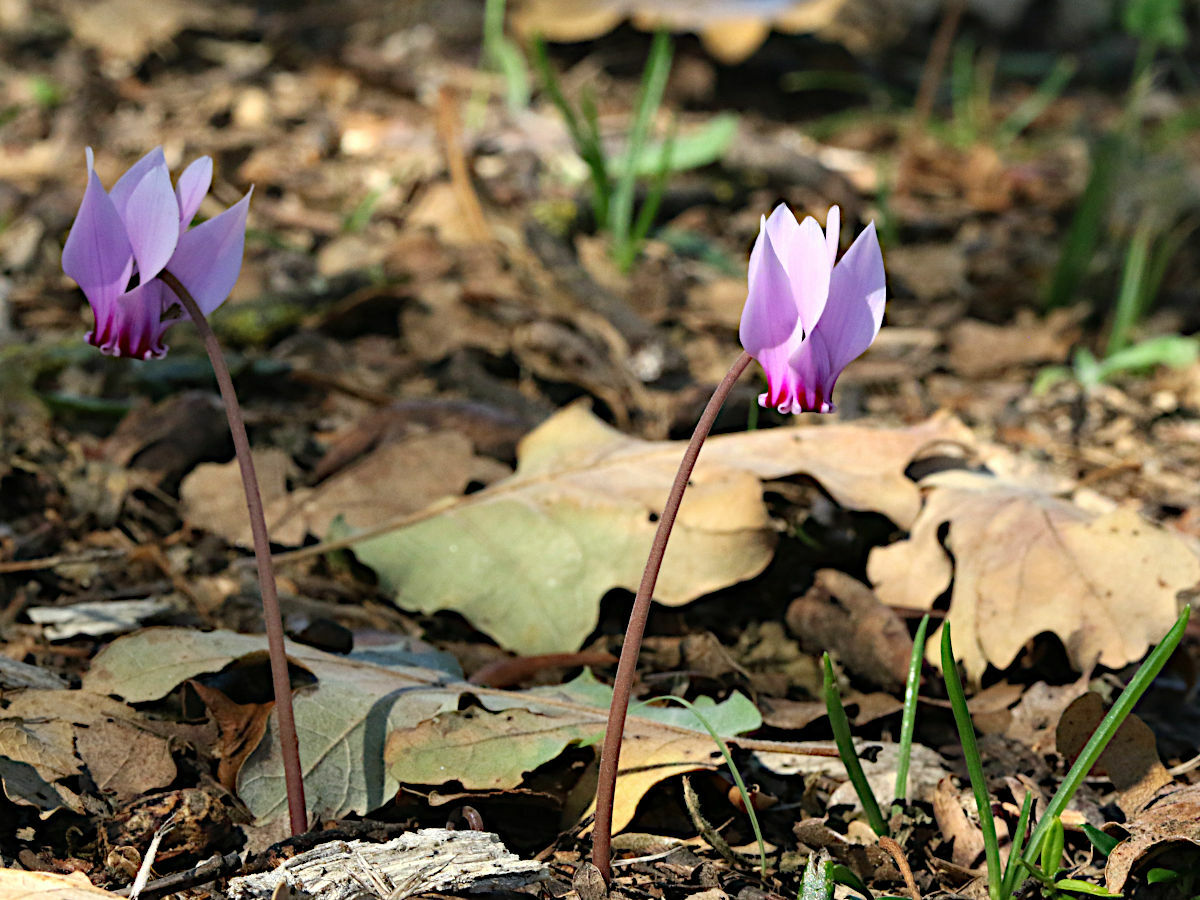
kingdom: Plantae
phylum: Tracheophyta
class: Magnoliopsida
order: Ericales
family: Primulaceae
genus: Cyclamen
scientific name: Cyclamen hederifolium
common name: Sowbread
